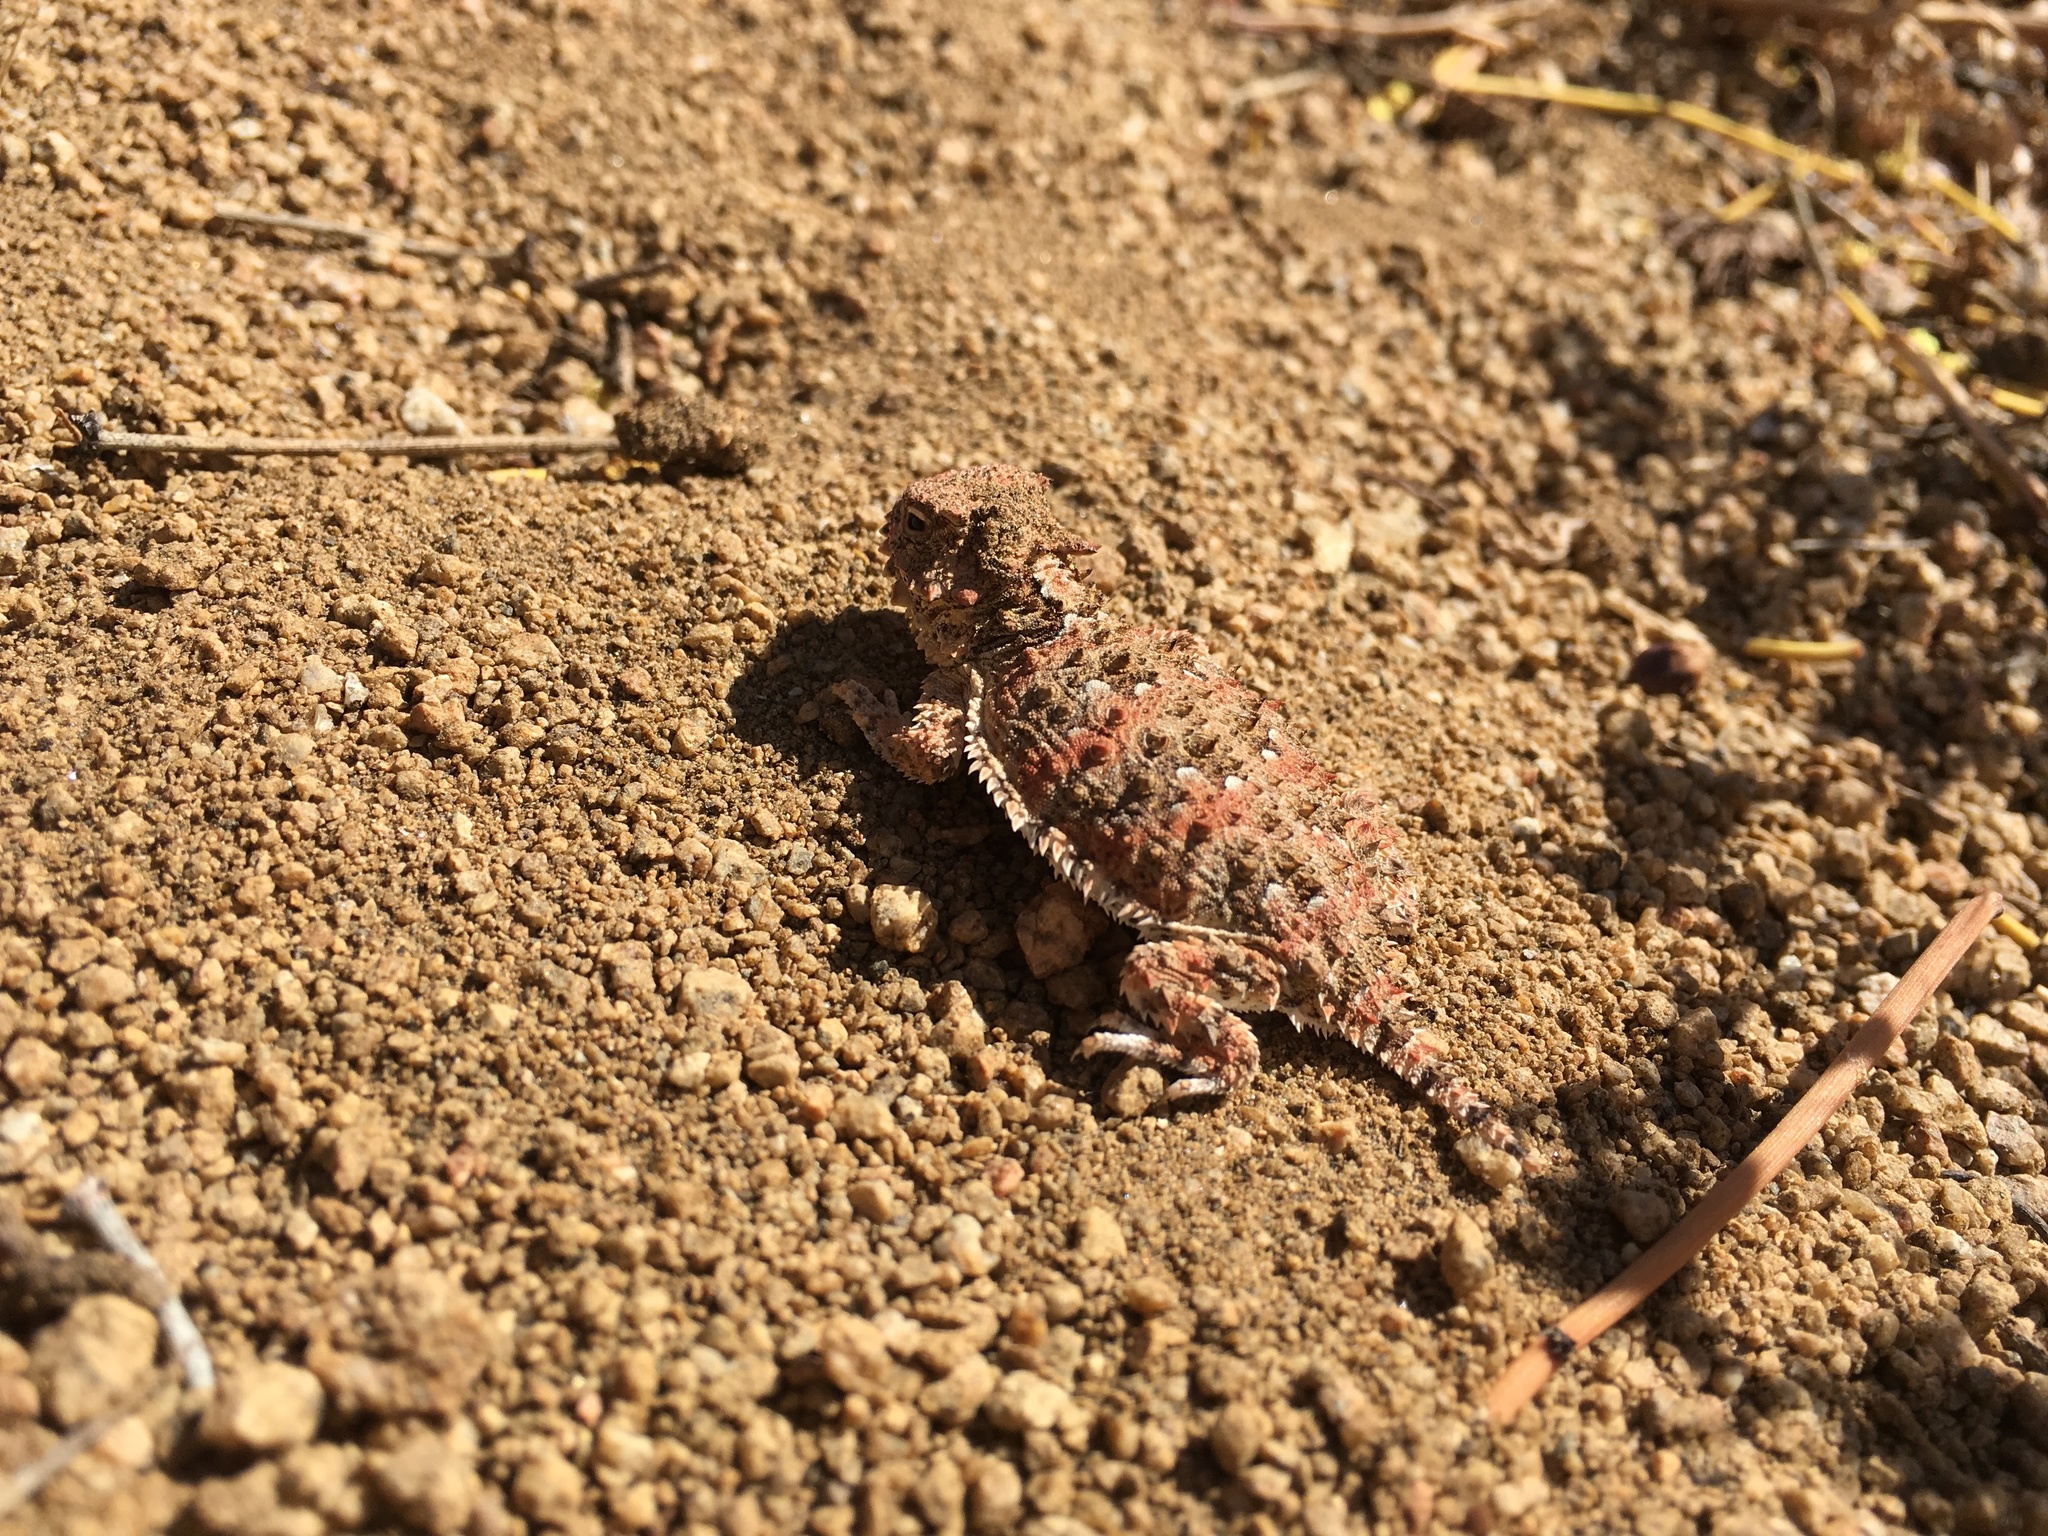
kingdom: Animalia
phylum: Chordata
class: Squamata
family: Phrynosomatidae
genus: Phrynosoma
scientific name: Phrynosoma blainvillii
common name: San diego horned lizard
